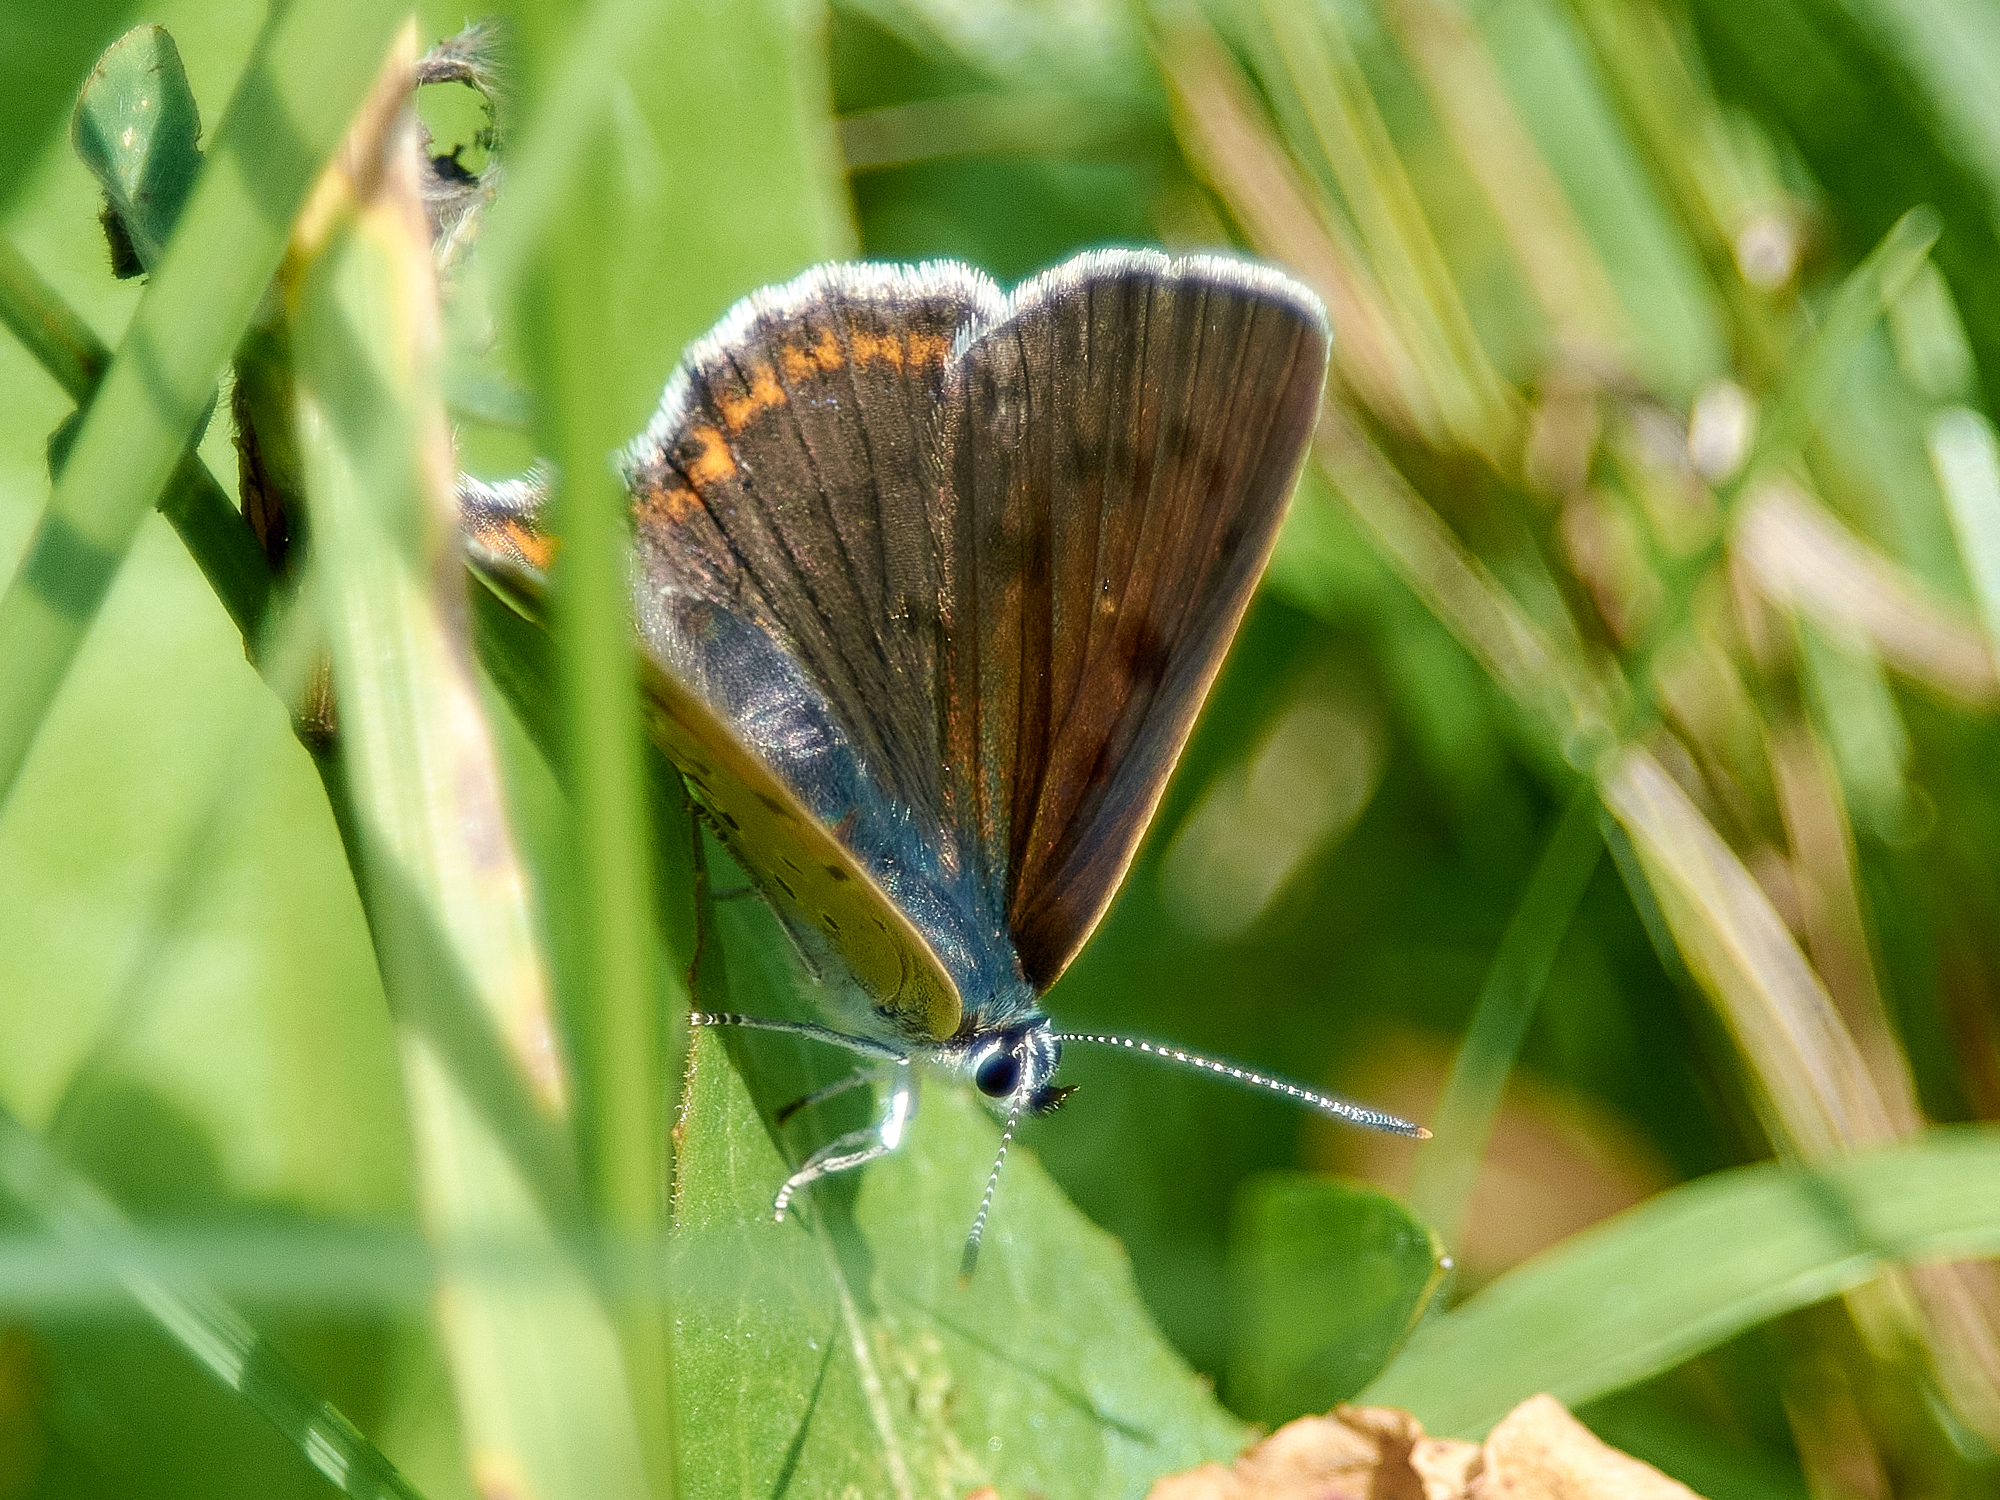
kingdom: Animalia
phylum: Arthropoda
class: Insecta
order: Lepidoptera
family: Lycaenidae
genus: Lycaena
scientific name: Lycaena alciphron
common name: Purple-shot copper
